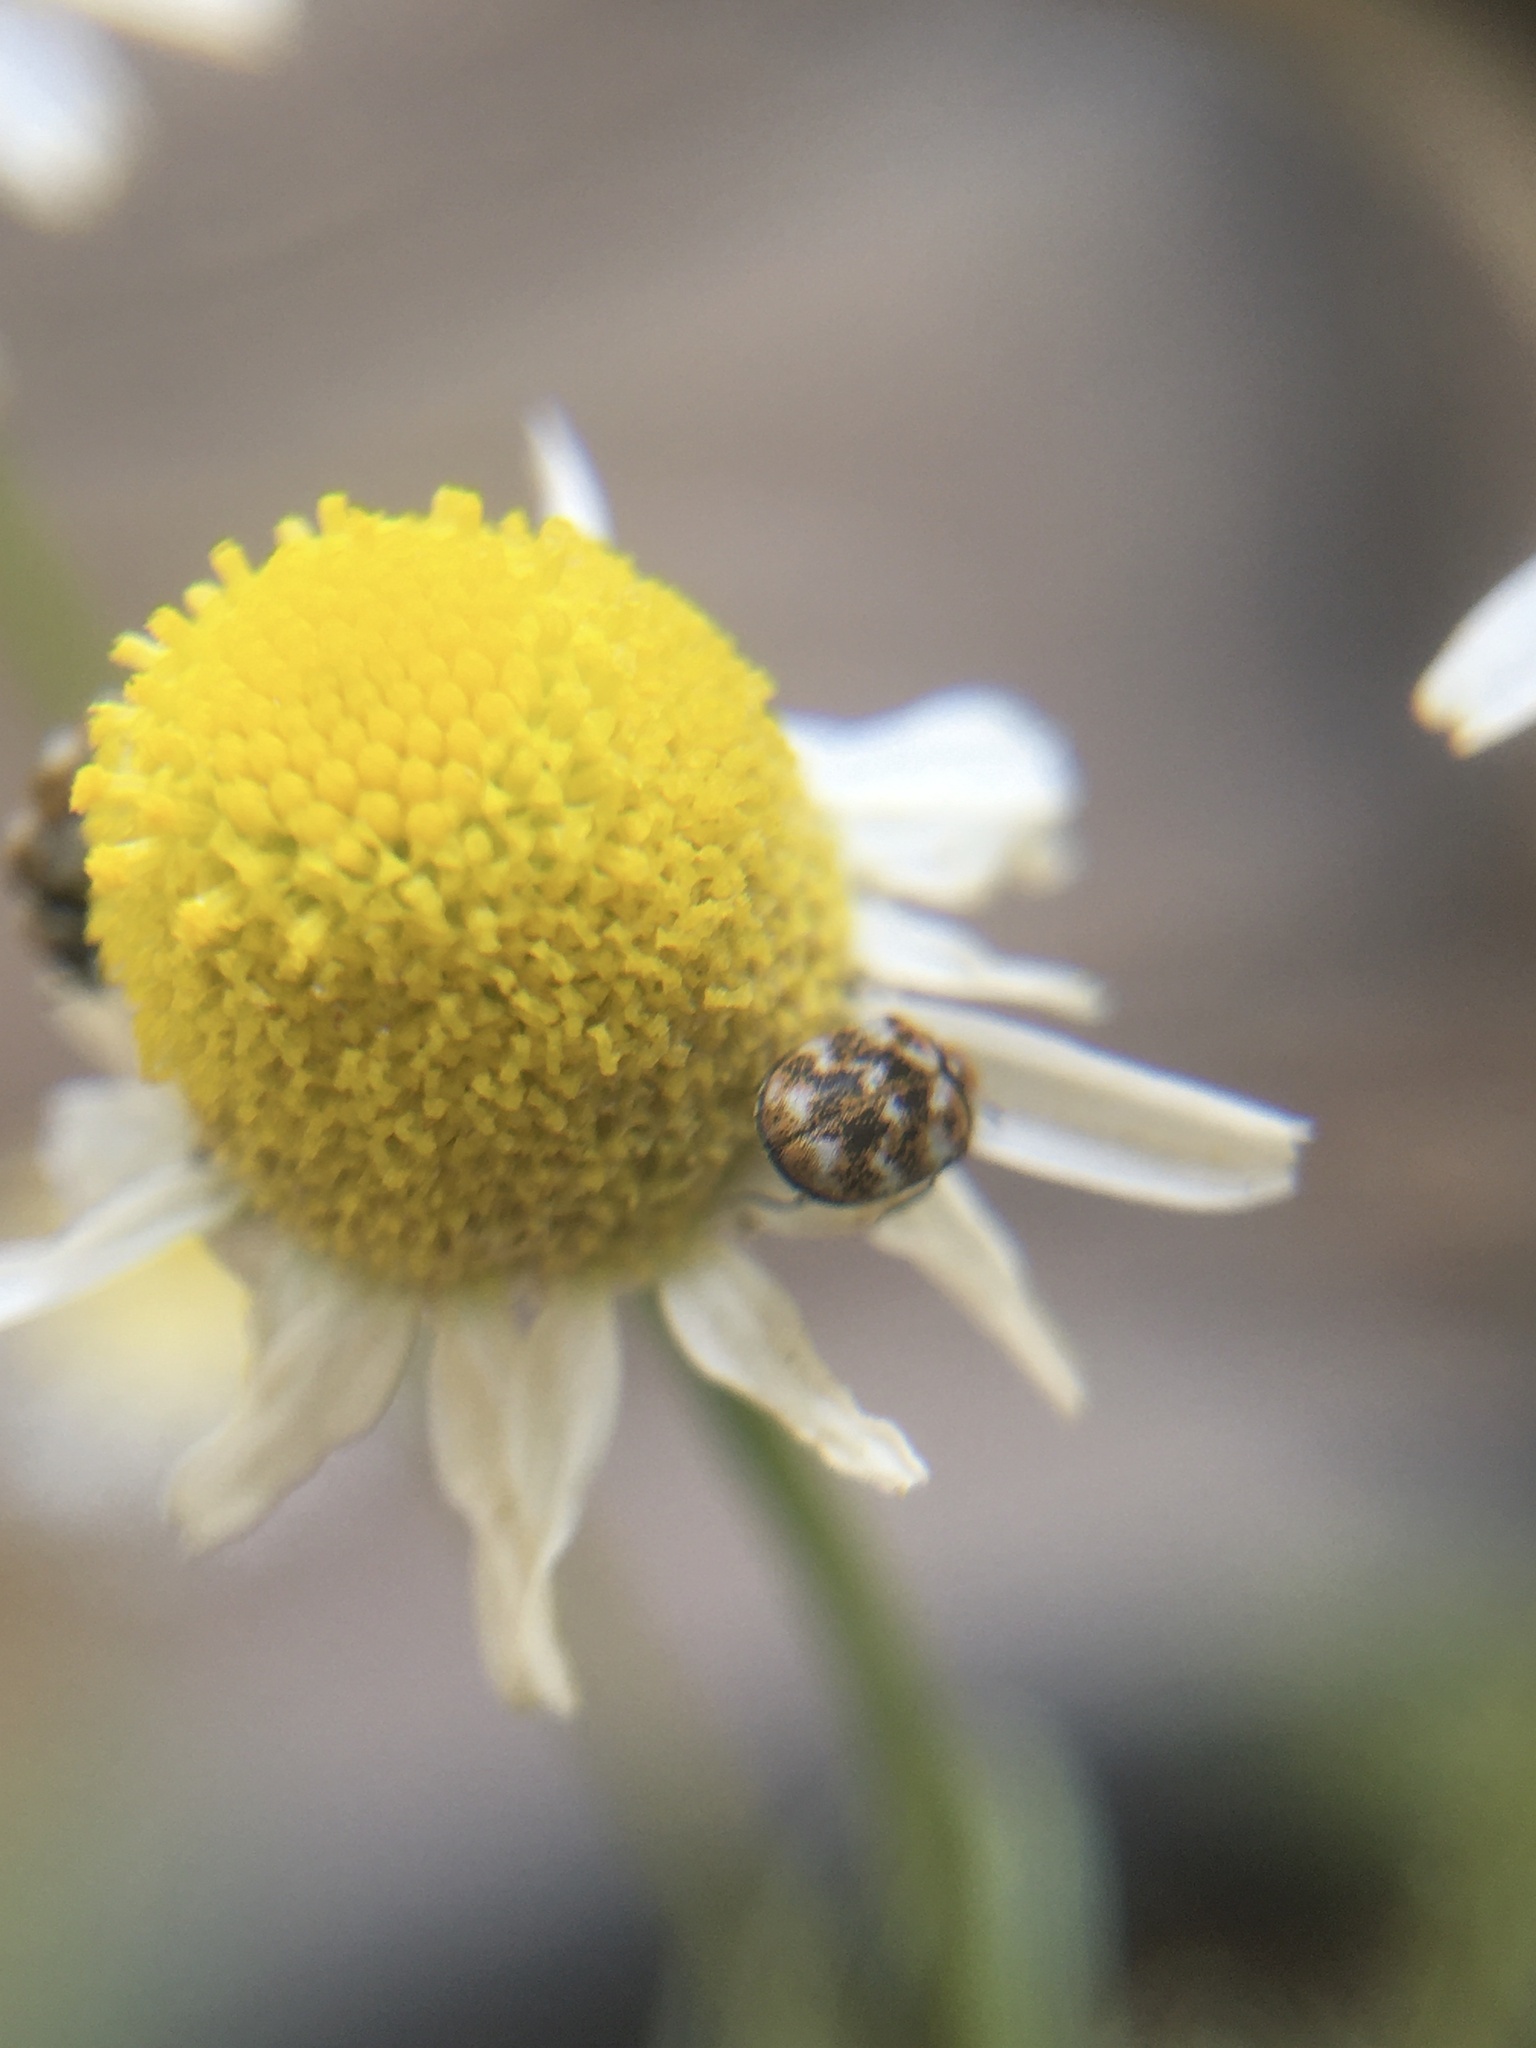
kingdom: Animalia
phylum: Arthropoda
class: Insecta
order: Coleoptera
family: Dermestidae
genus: Anthrenus
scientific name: Anthrenus verbasci
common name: Varied carpet beetle
